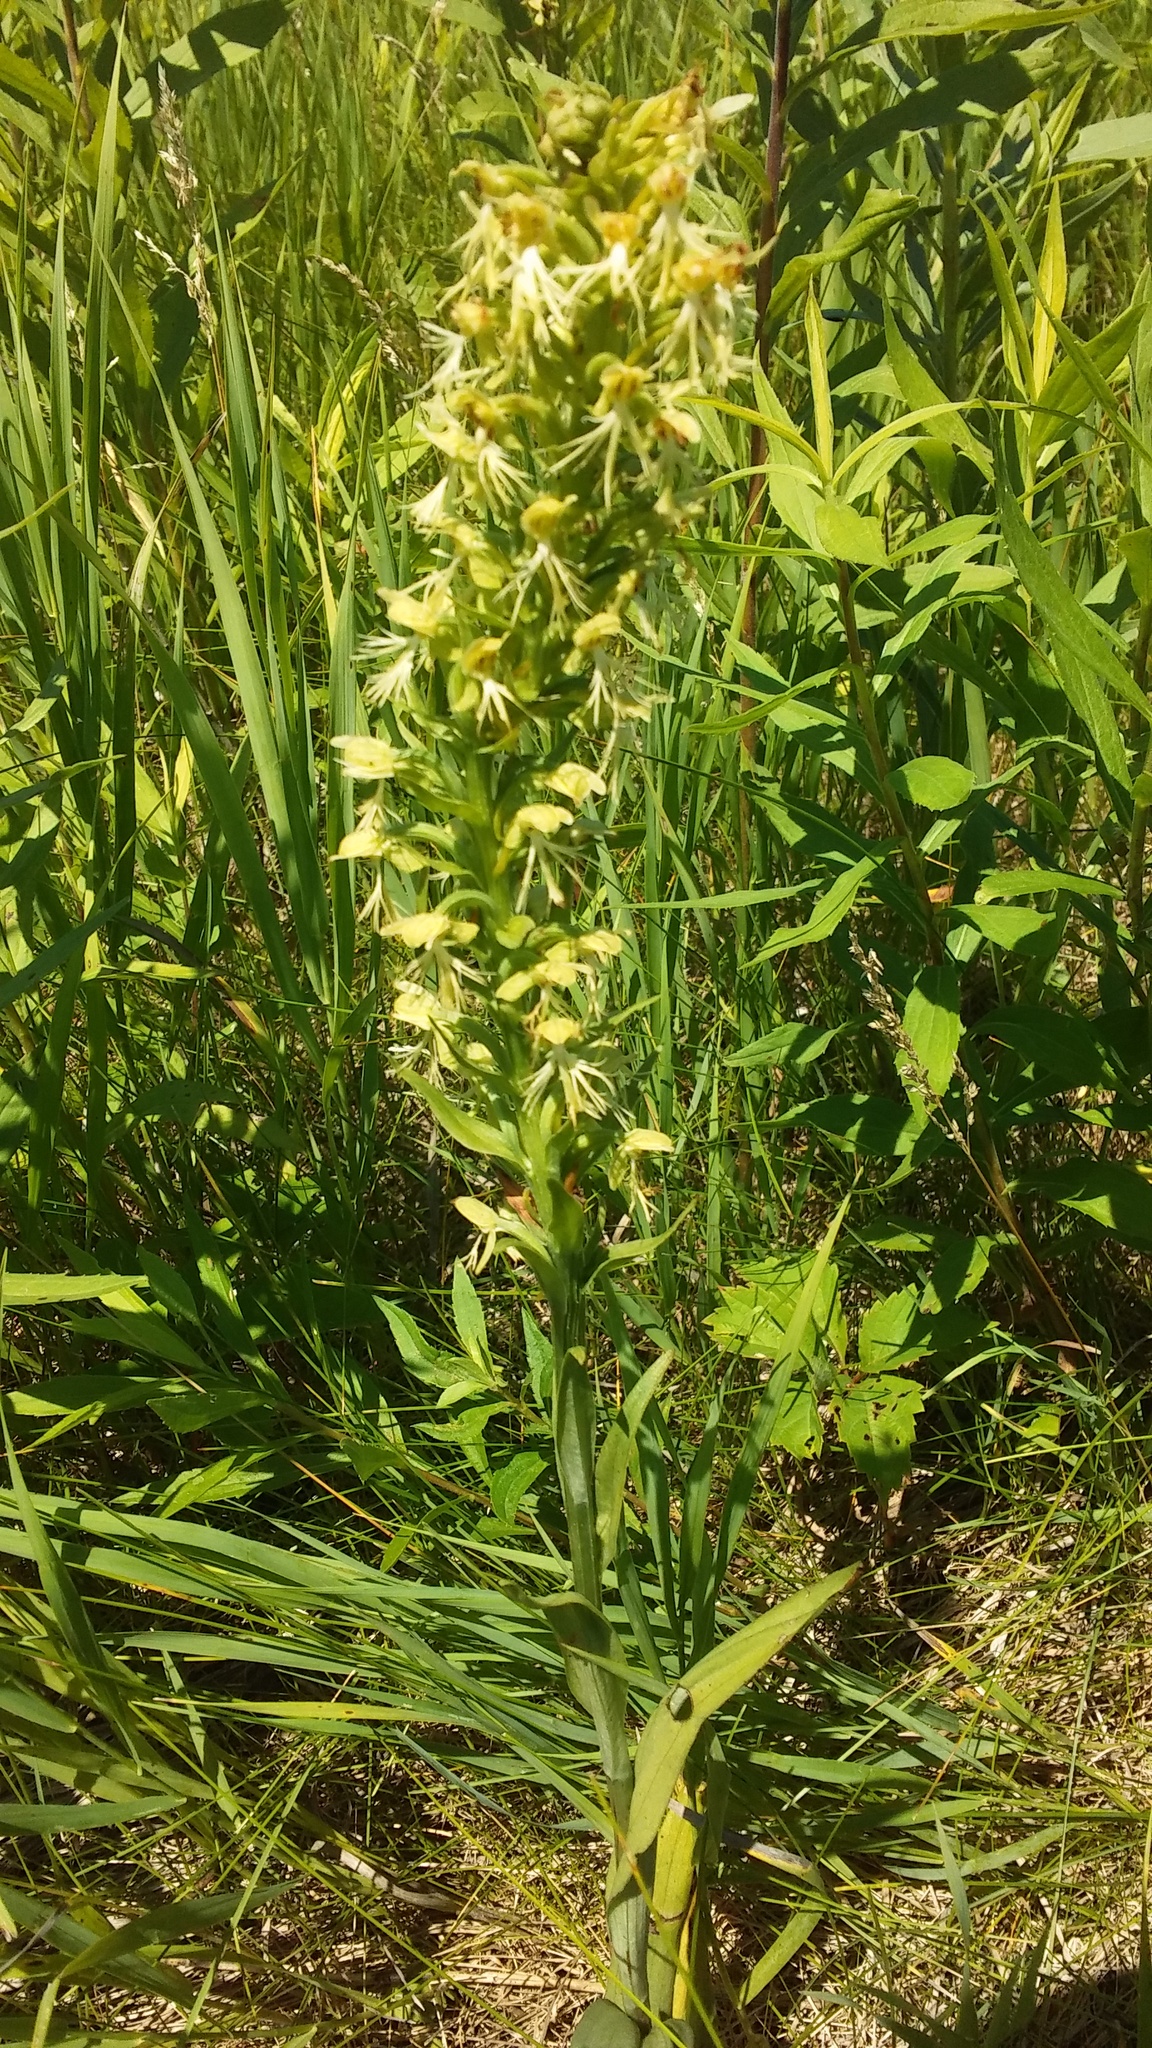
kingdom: Plantae
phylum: Tracheophyta
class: Liliopsida
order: Asparagales
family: Orchidaceae
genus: Platanthera
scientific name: Platanthera lacera
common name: Green fringed orchid
